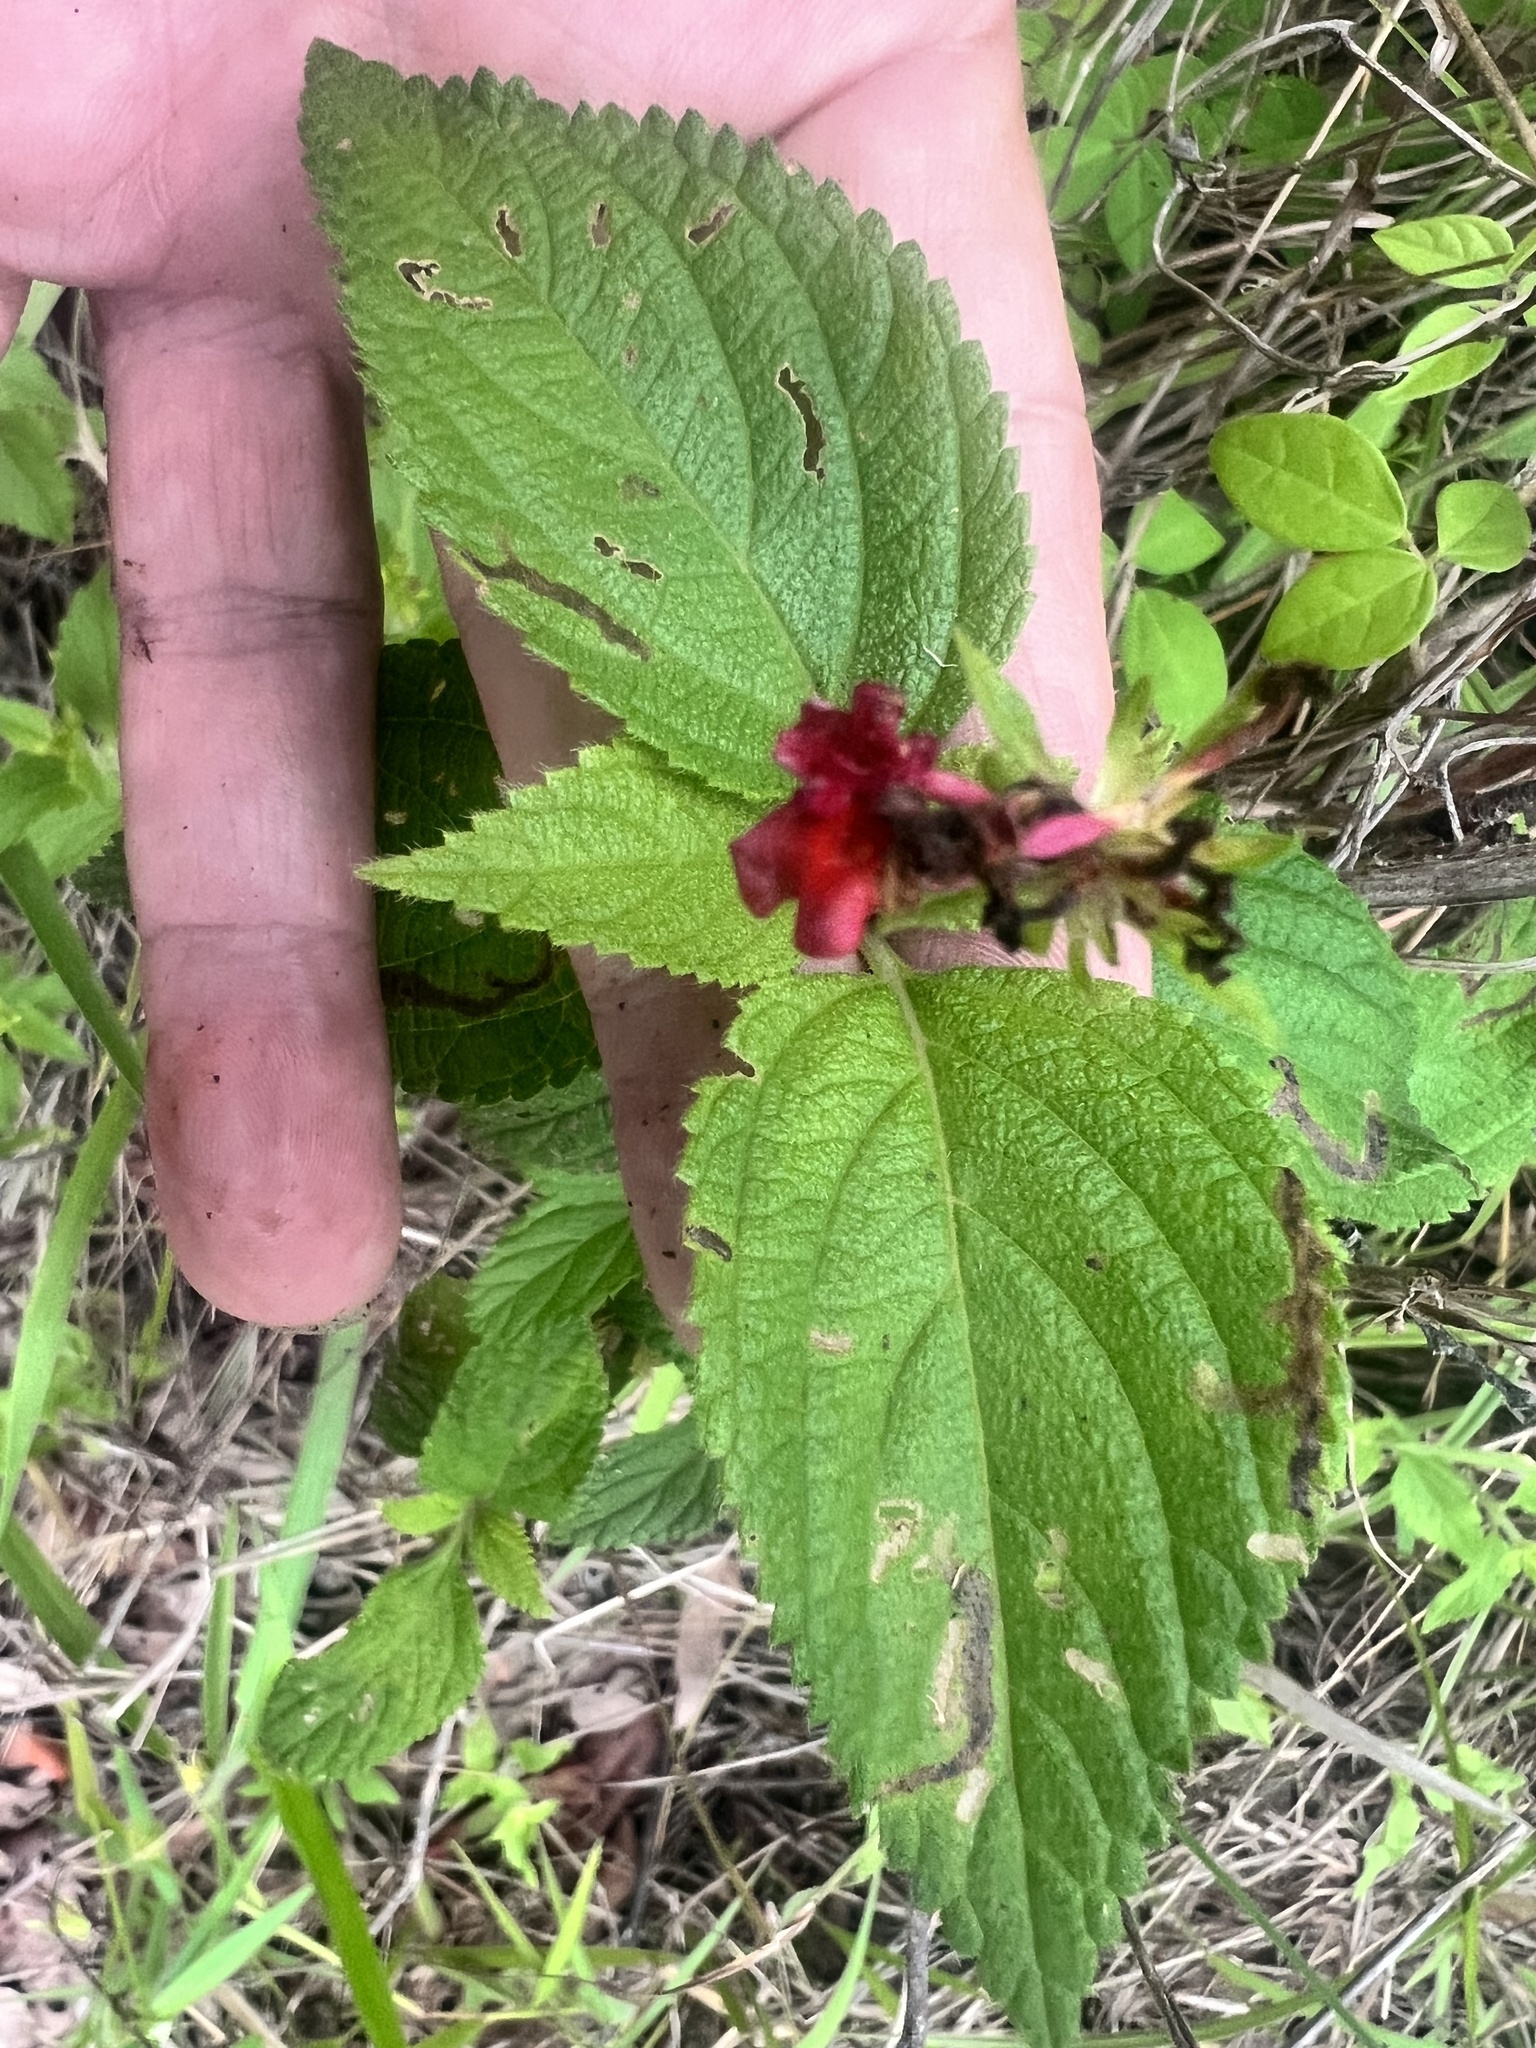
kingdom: Plantae
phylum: Tracheophyta
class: Magnoliopsida
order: Lamiales
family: Verbenaceae
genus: Lantana
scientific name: Lantana camara
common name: Lantana
